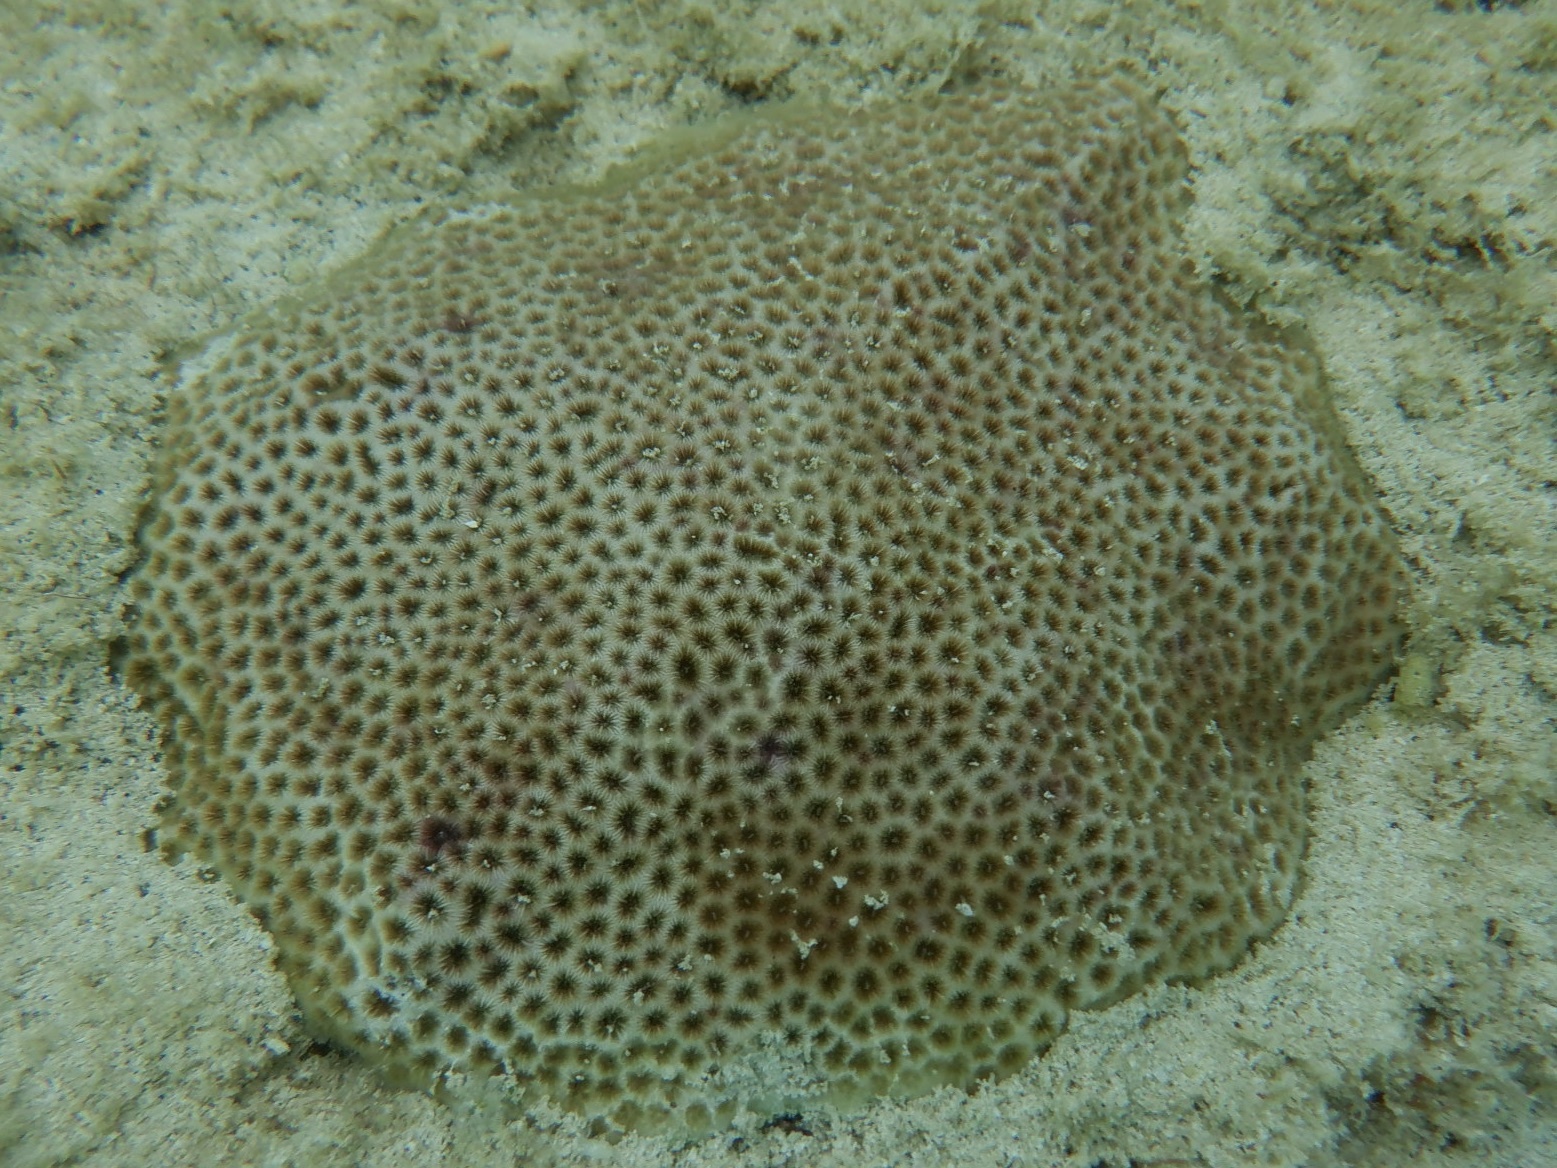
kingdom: Animalia
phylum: Cnidaria
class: Anthozoa
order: Scleractinia
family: Rhizangiidae
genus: Siderastrea
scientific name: Siderastrea radians
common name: Lesser starlet coral
